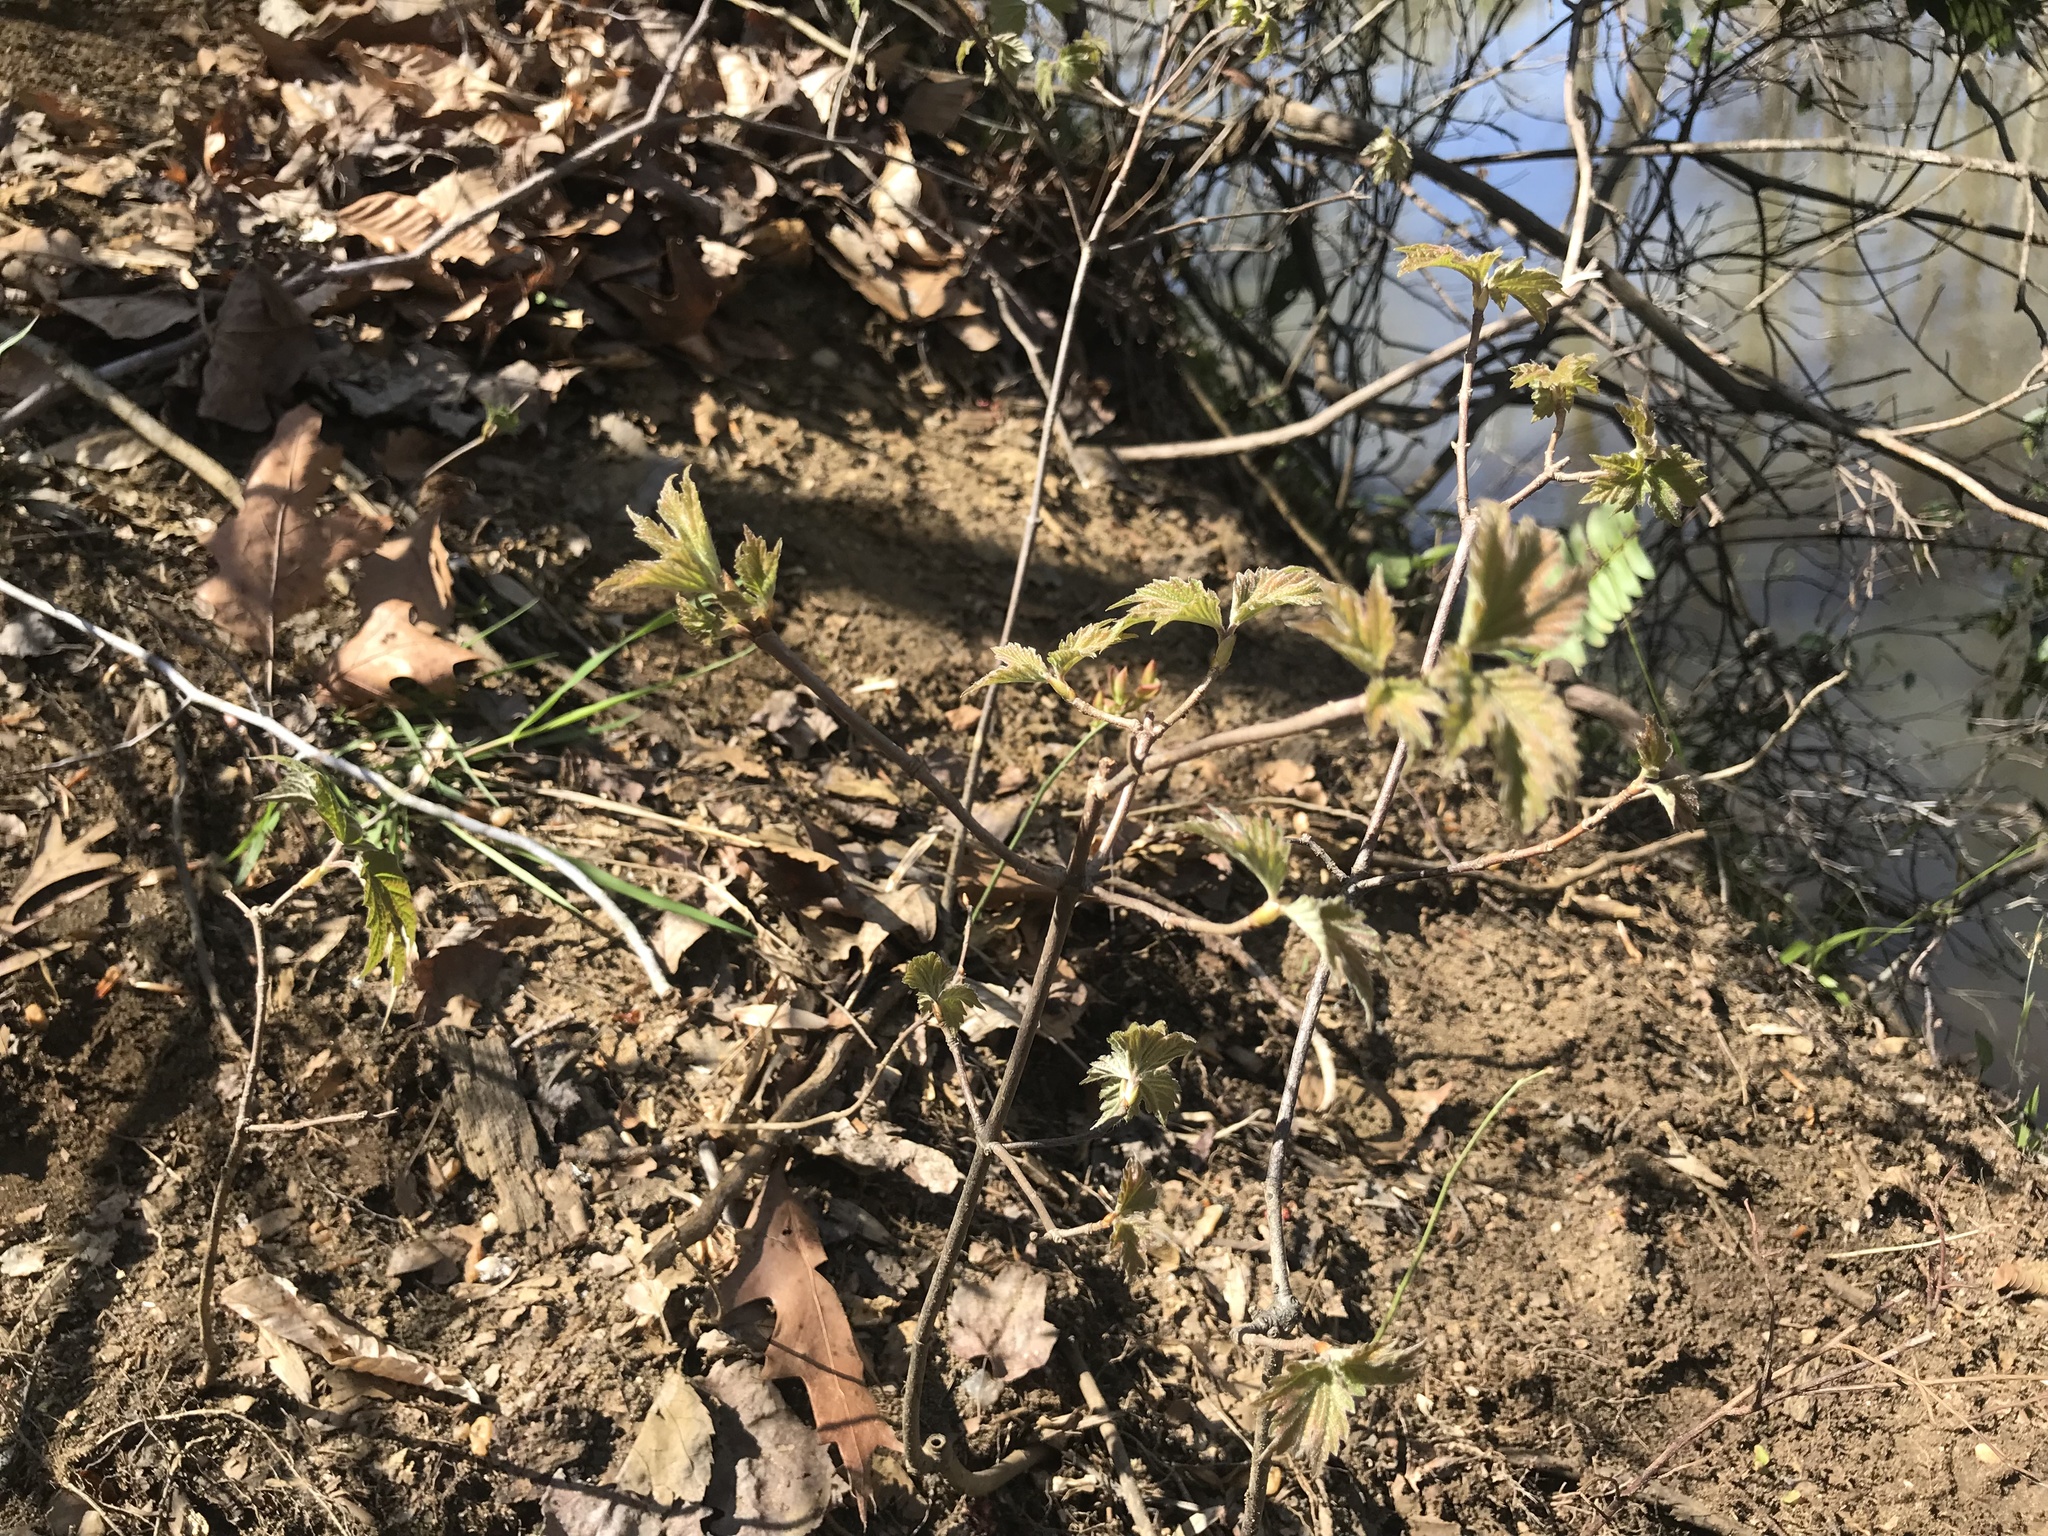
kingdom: Plantae
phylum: Tracheophyta
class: Magnoliopsida
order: Dipsacales
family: Viburnaceae
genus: Viburnum
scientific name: Viburnum acerifolium
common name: Dockmackie
